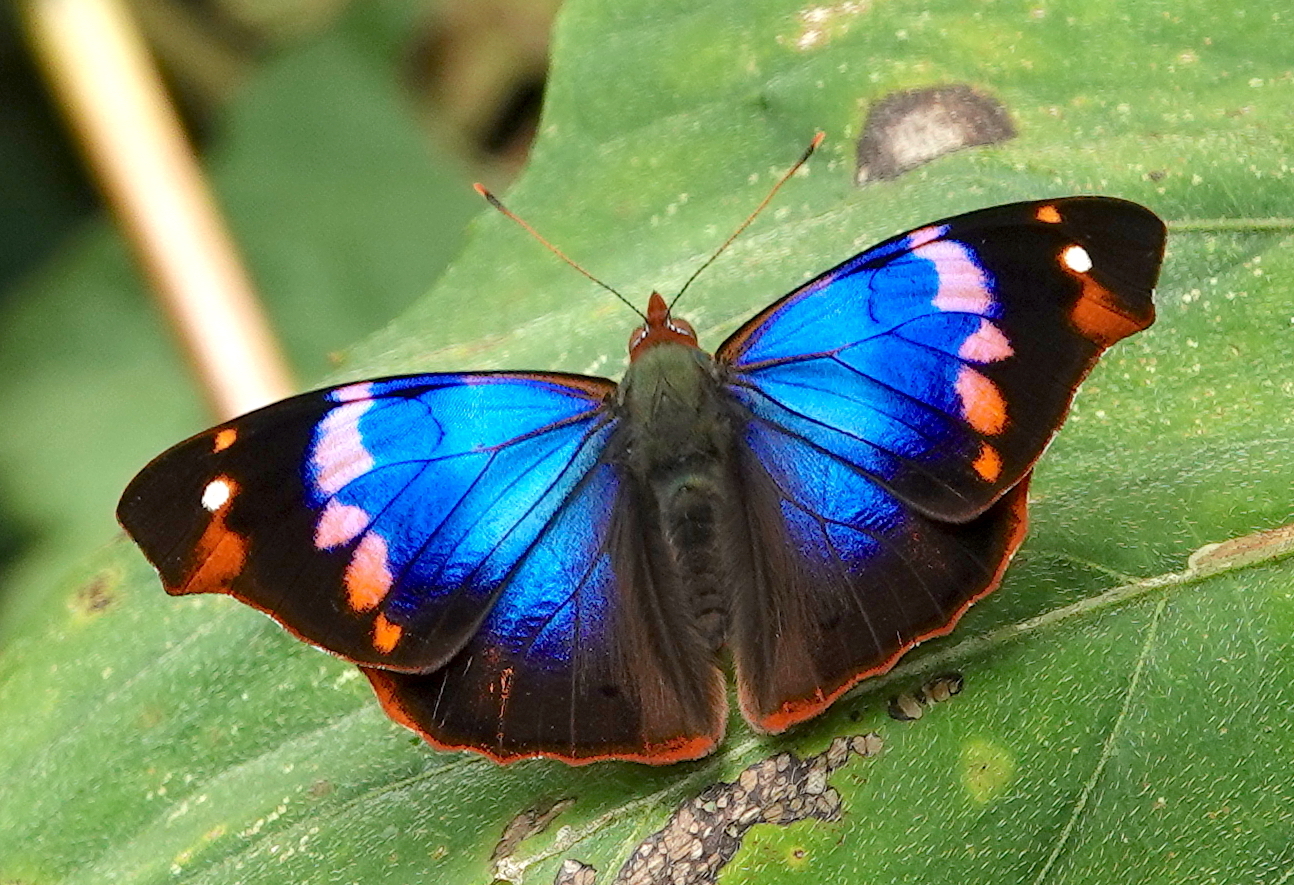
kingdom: Animalia
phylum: Arthropoda
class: Insecta
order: Lepidoptera
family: Nymphalidae
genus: Epiphile
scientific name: Epiphile epimenes
